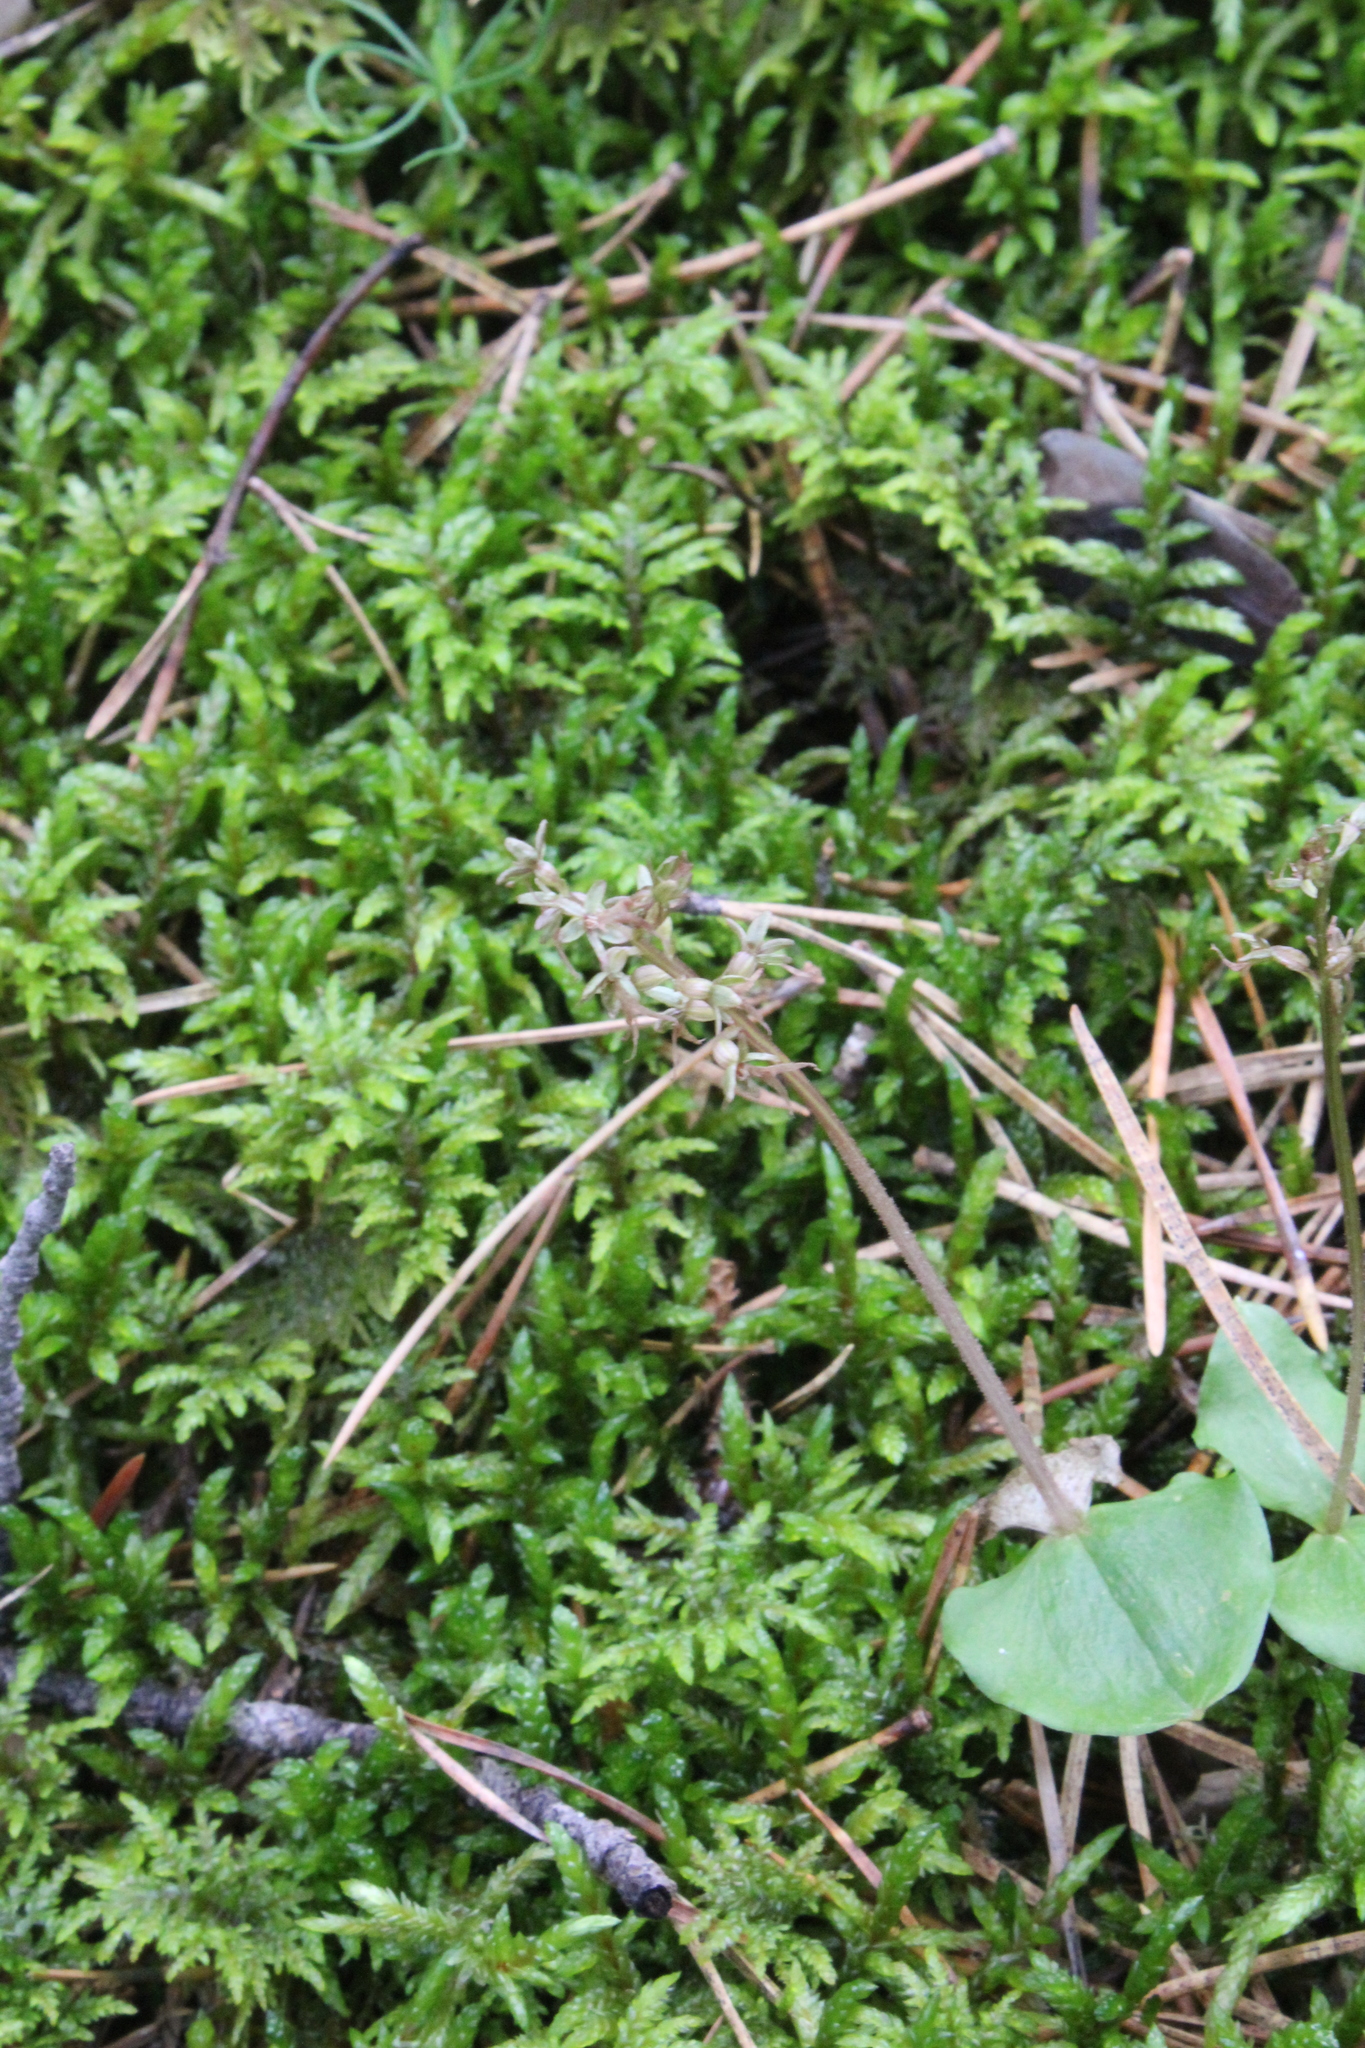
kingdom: Plantae
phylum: Tracheophyta
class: Liliopsida
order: Asparagales
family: Orchidaceae
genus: Neottia
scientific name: Neottia cordata
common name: Lesser twayblade
